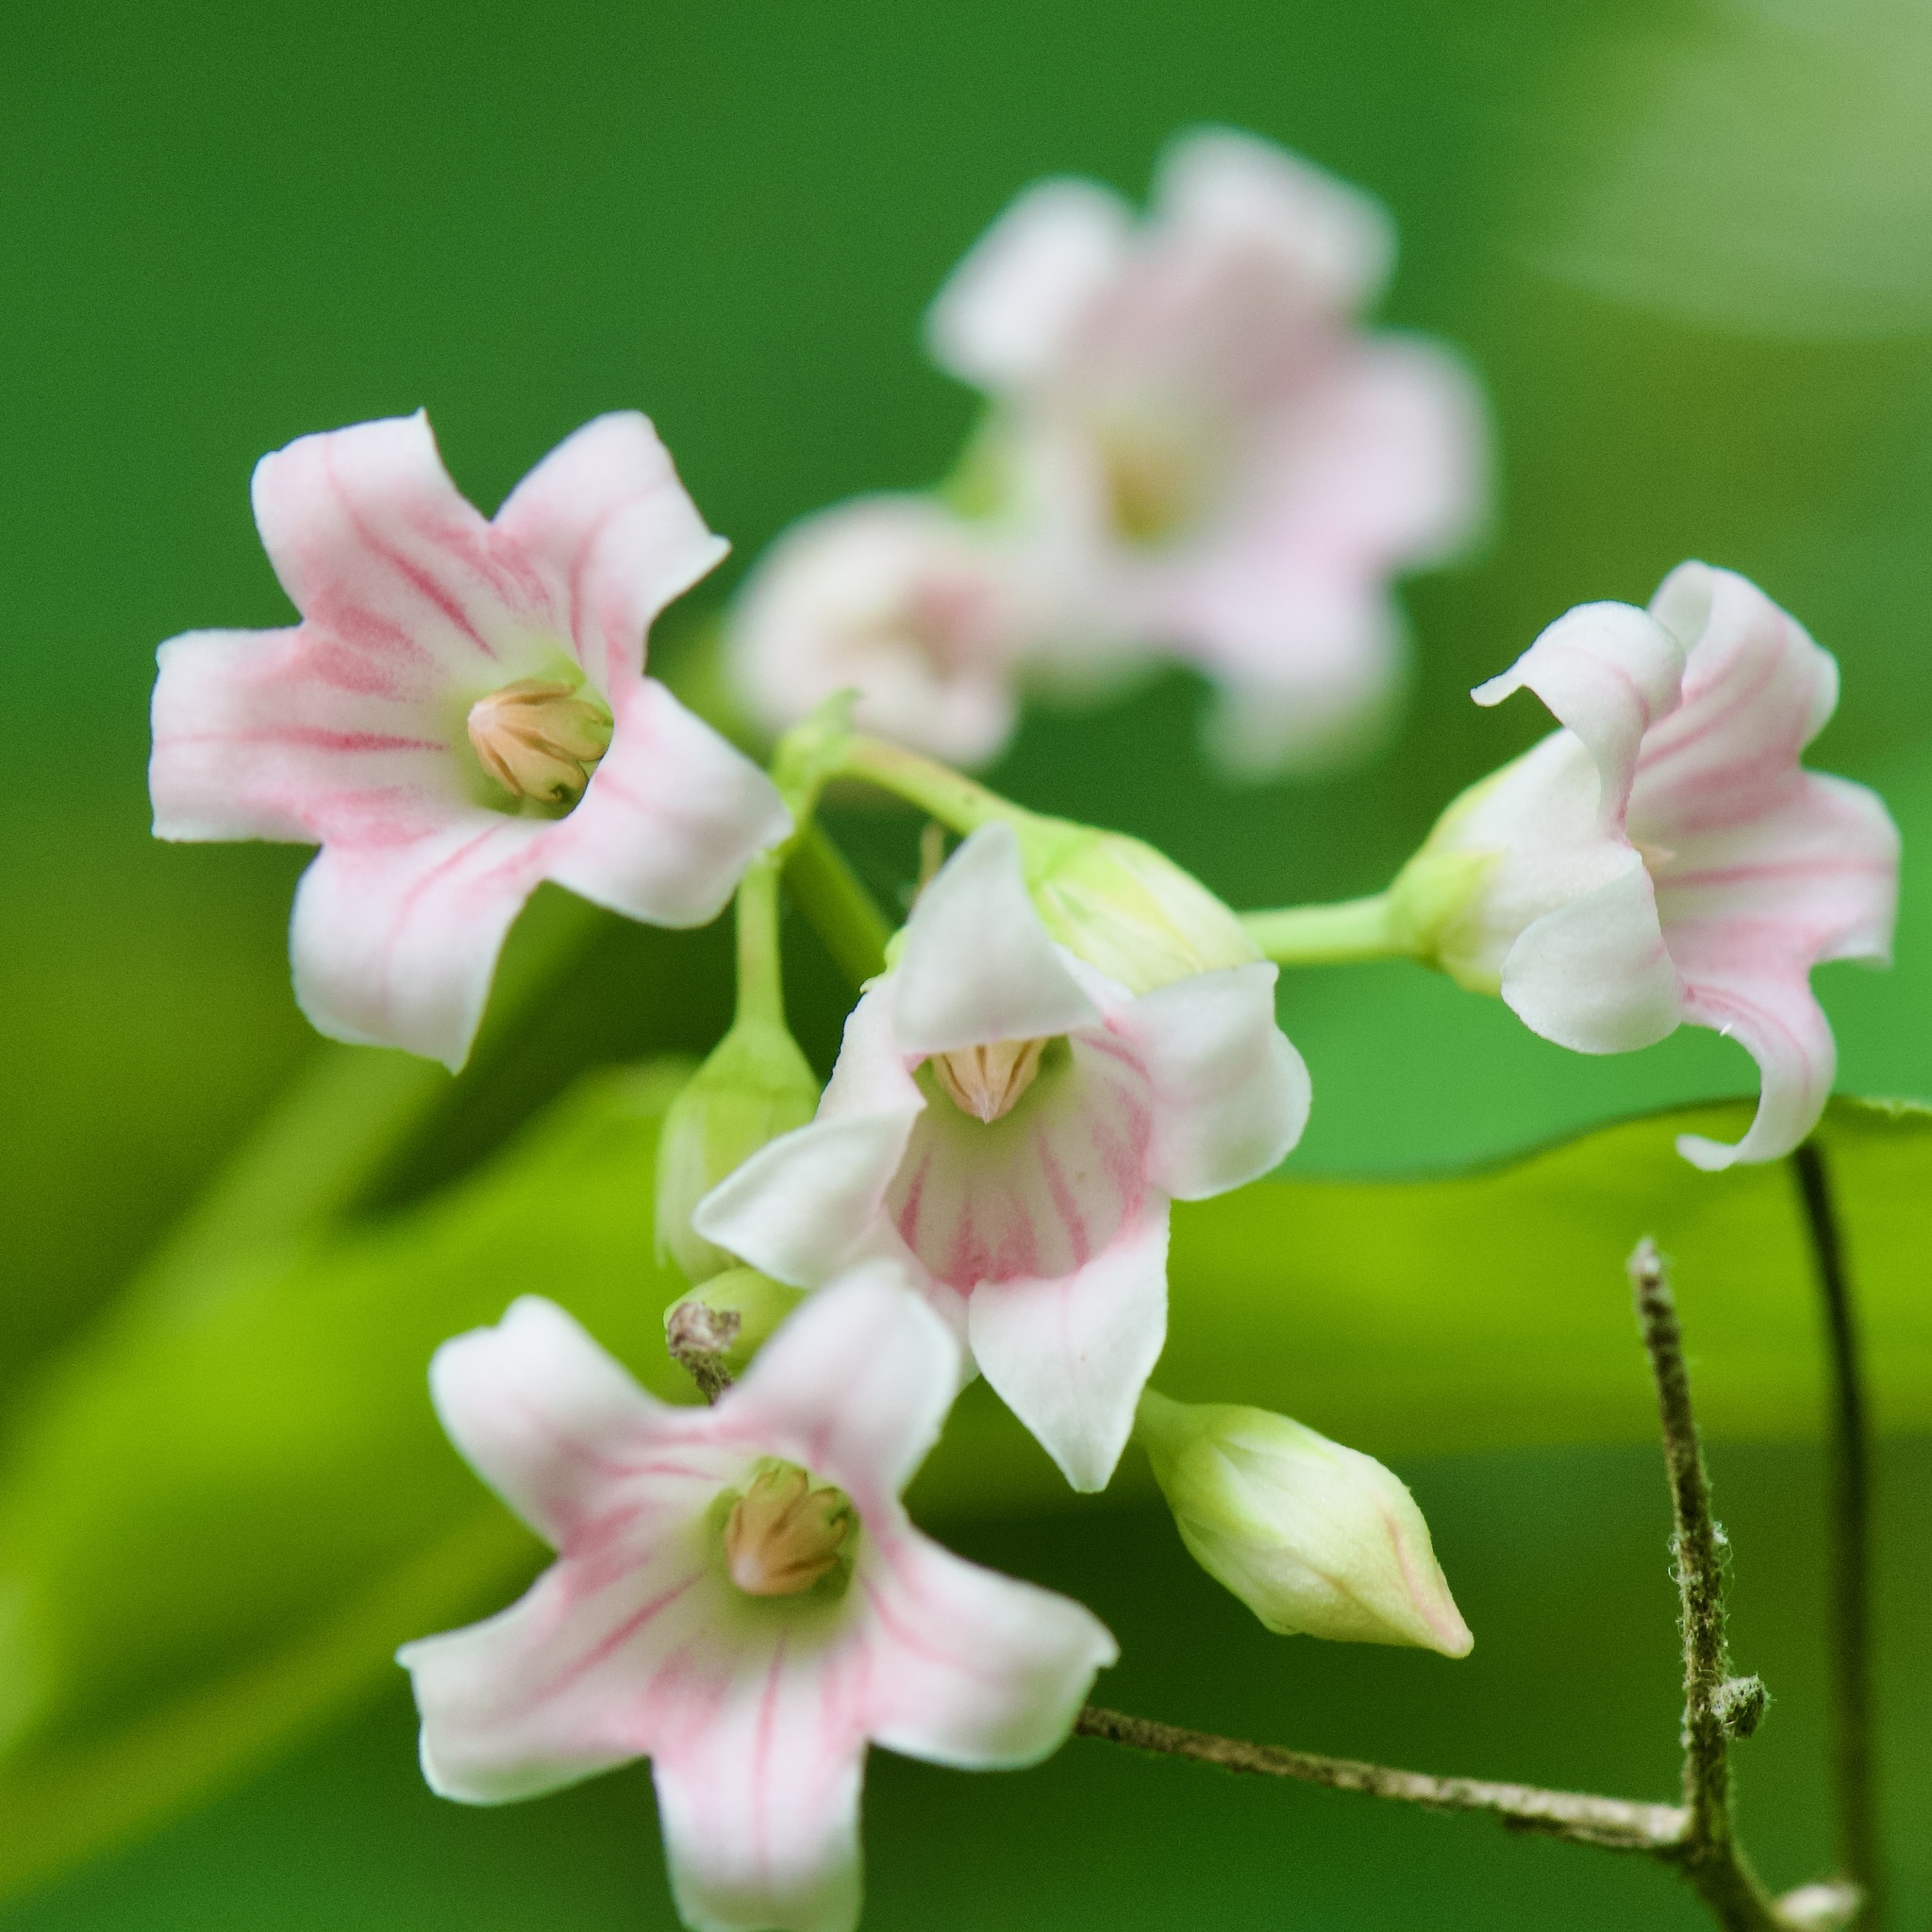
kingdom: Plantae
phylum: Tracheophyta
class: Magnoliopsida
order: Gentianales
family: Apocynaceae
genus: Apocynum
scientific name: Apocynum androsaemifolium
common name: Spreading dogbane
